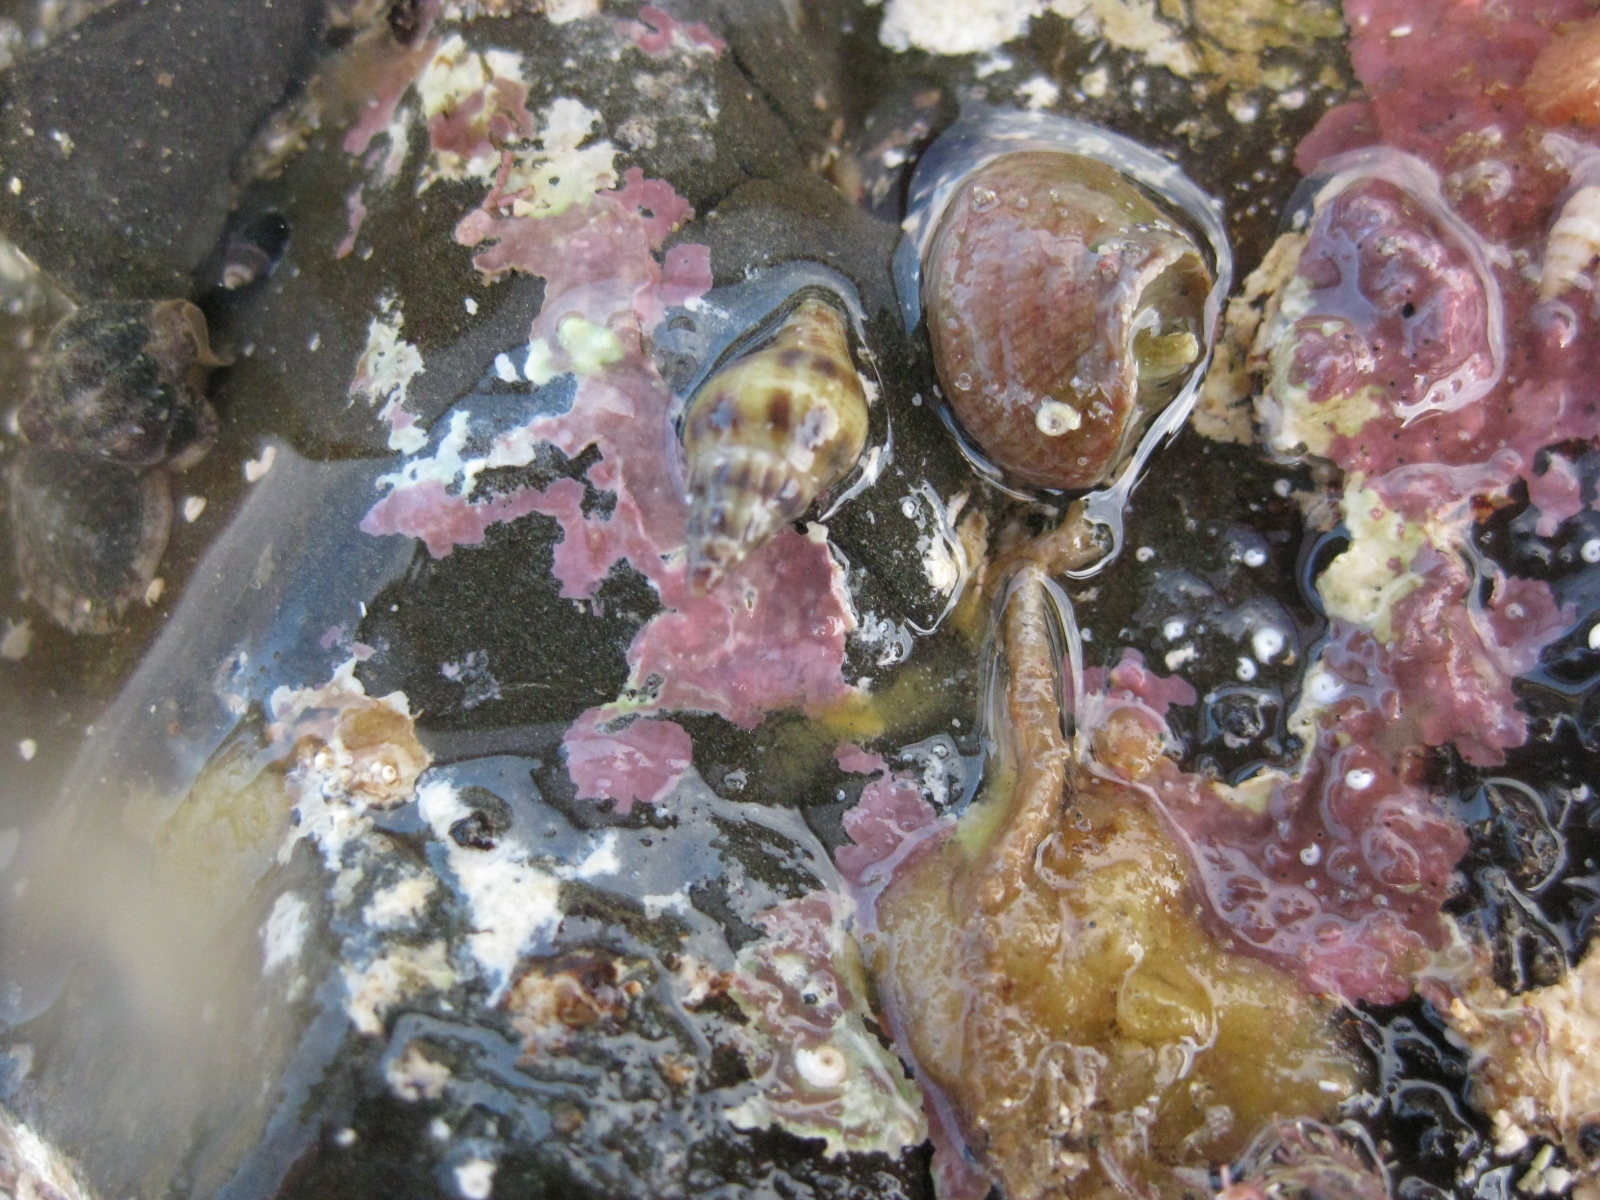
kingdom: Animalia
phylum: Mollusca
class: Gastropoda
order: Neogastropoda
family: Tudiclidae
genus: Buccinulum
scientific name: Buccinulum vittatum
